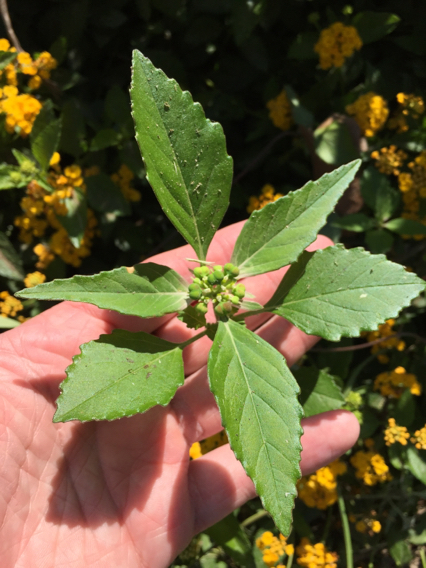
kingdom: Plantae
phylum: Tracheophyta
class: Magnoliopsida
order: Malpighiales
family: Euphorbiaceae
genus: Euphorbia
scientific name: Euphorbia dentata
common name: Dentate spurge
